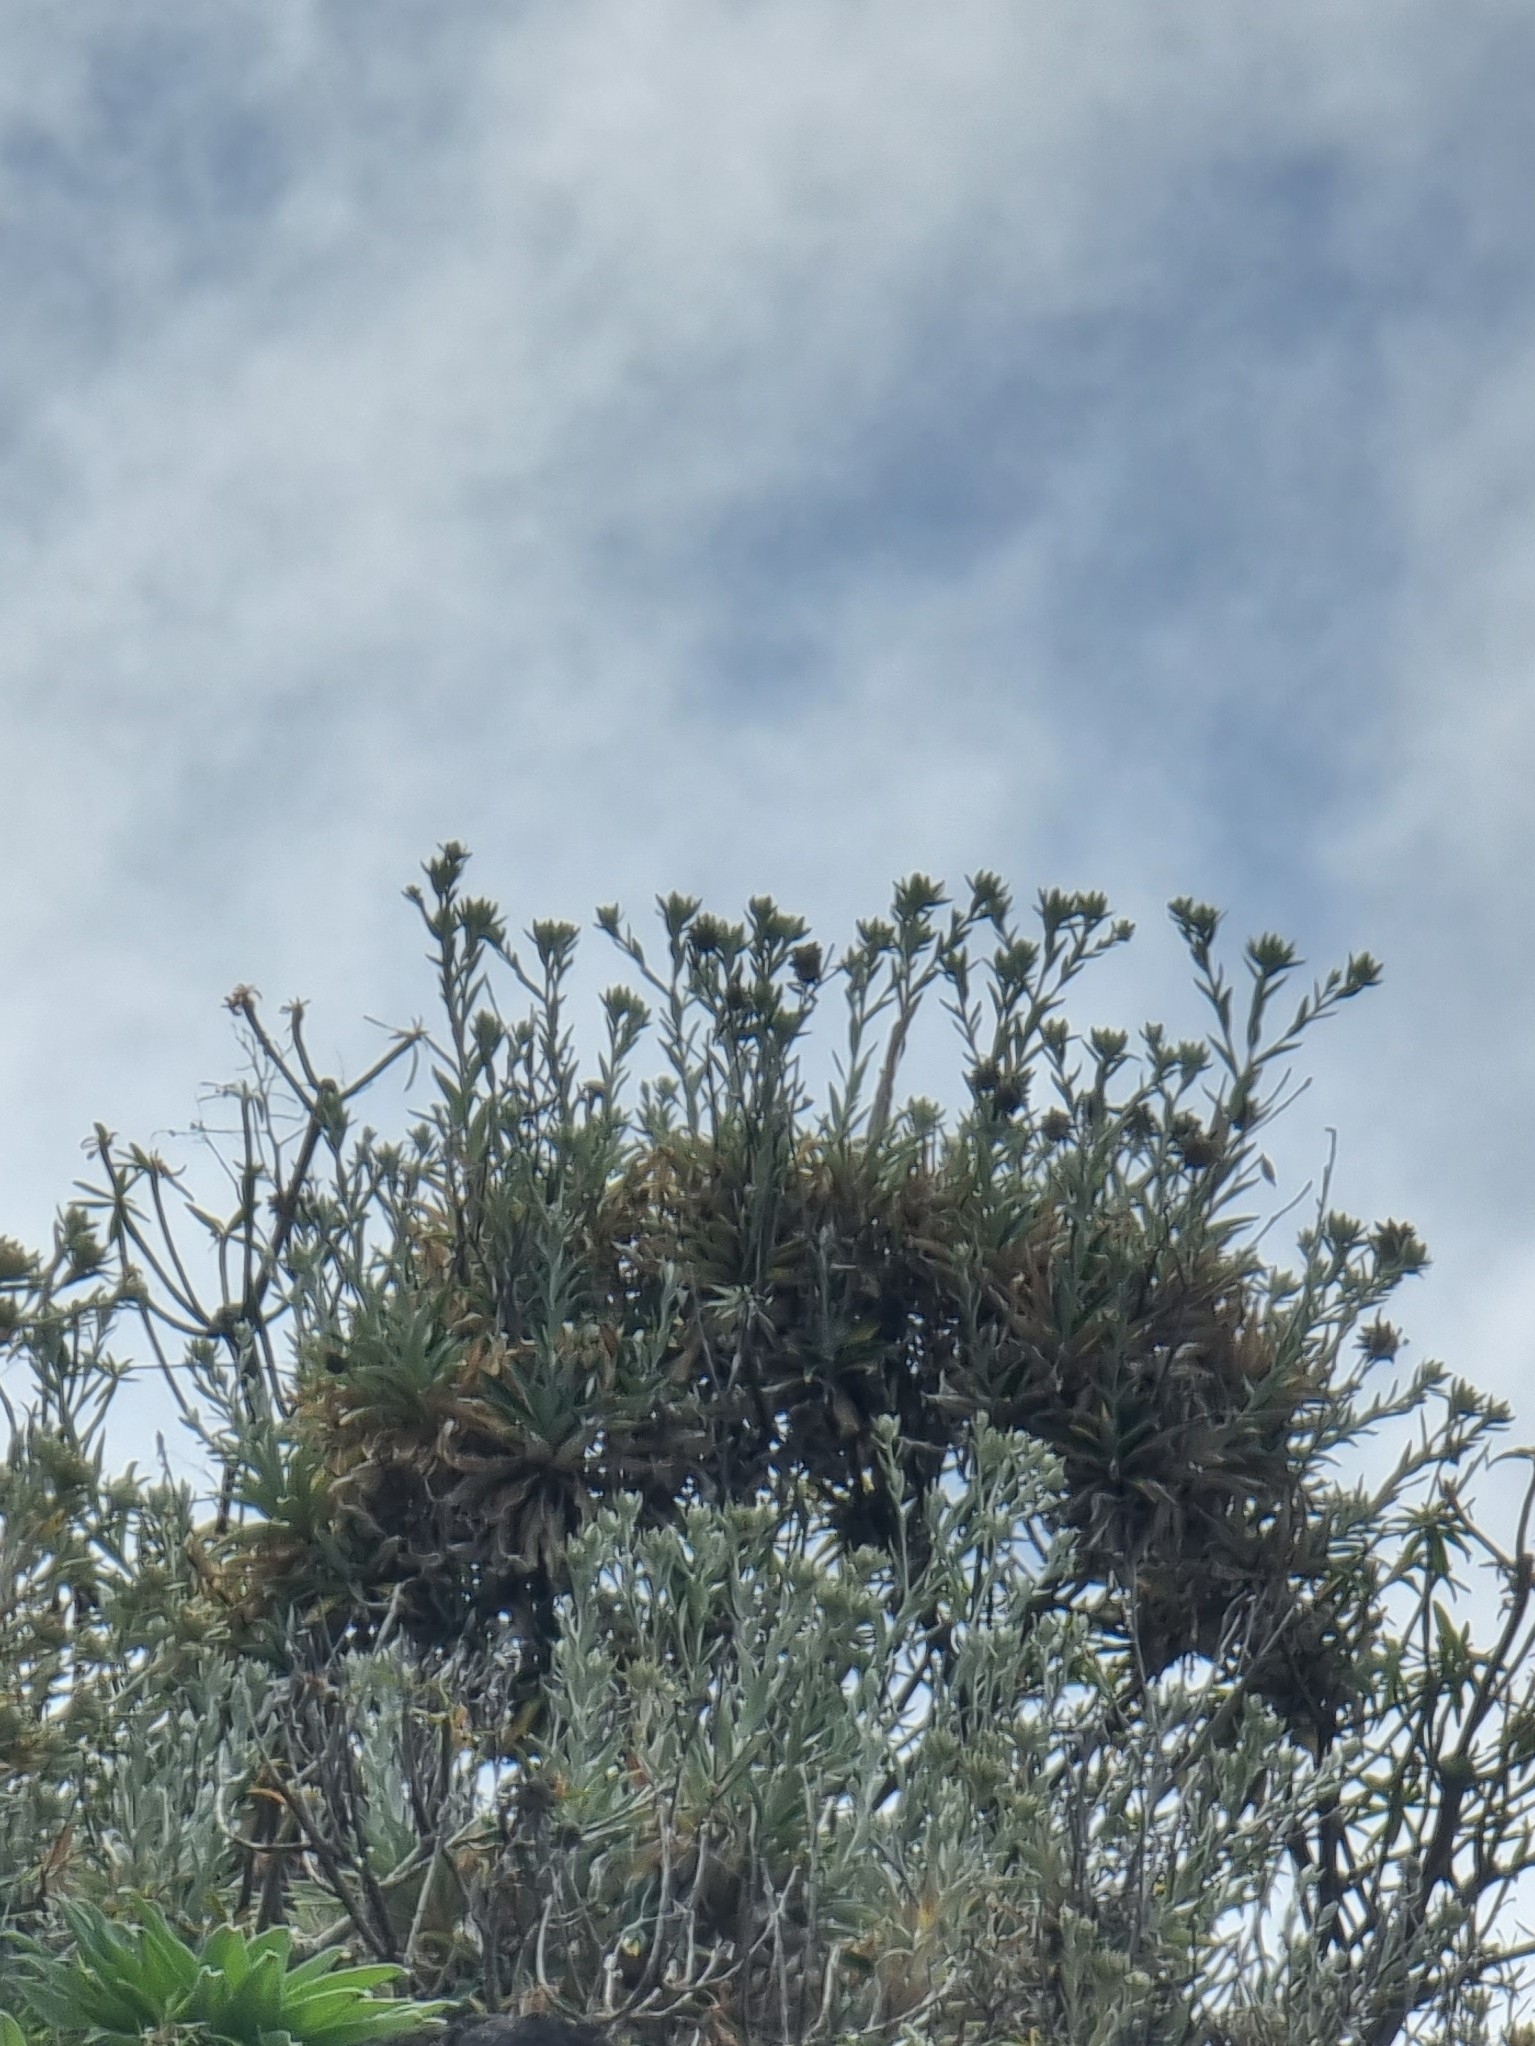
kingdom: Plantae
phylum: Tracheophyta
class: Magnoliopsida
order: Asterales
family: Asteraceae
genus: Carlina
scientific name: Carlina salicifolia
